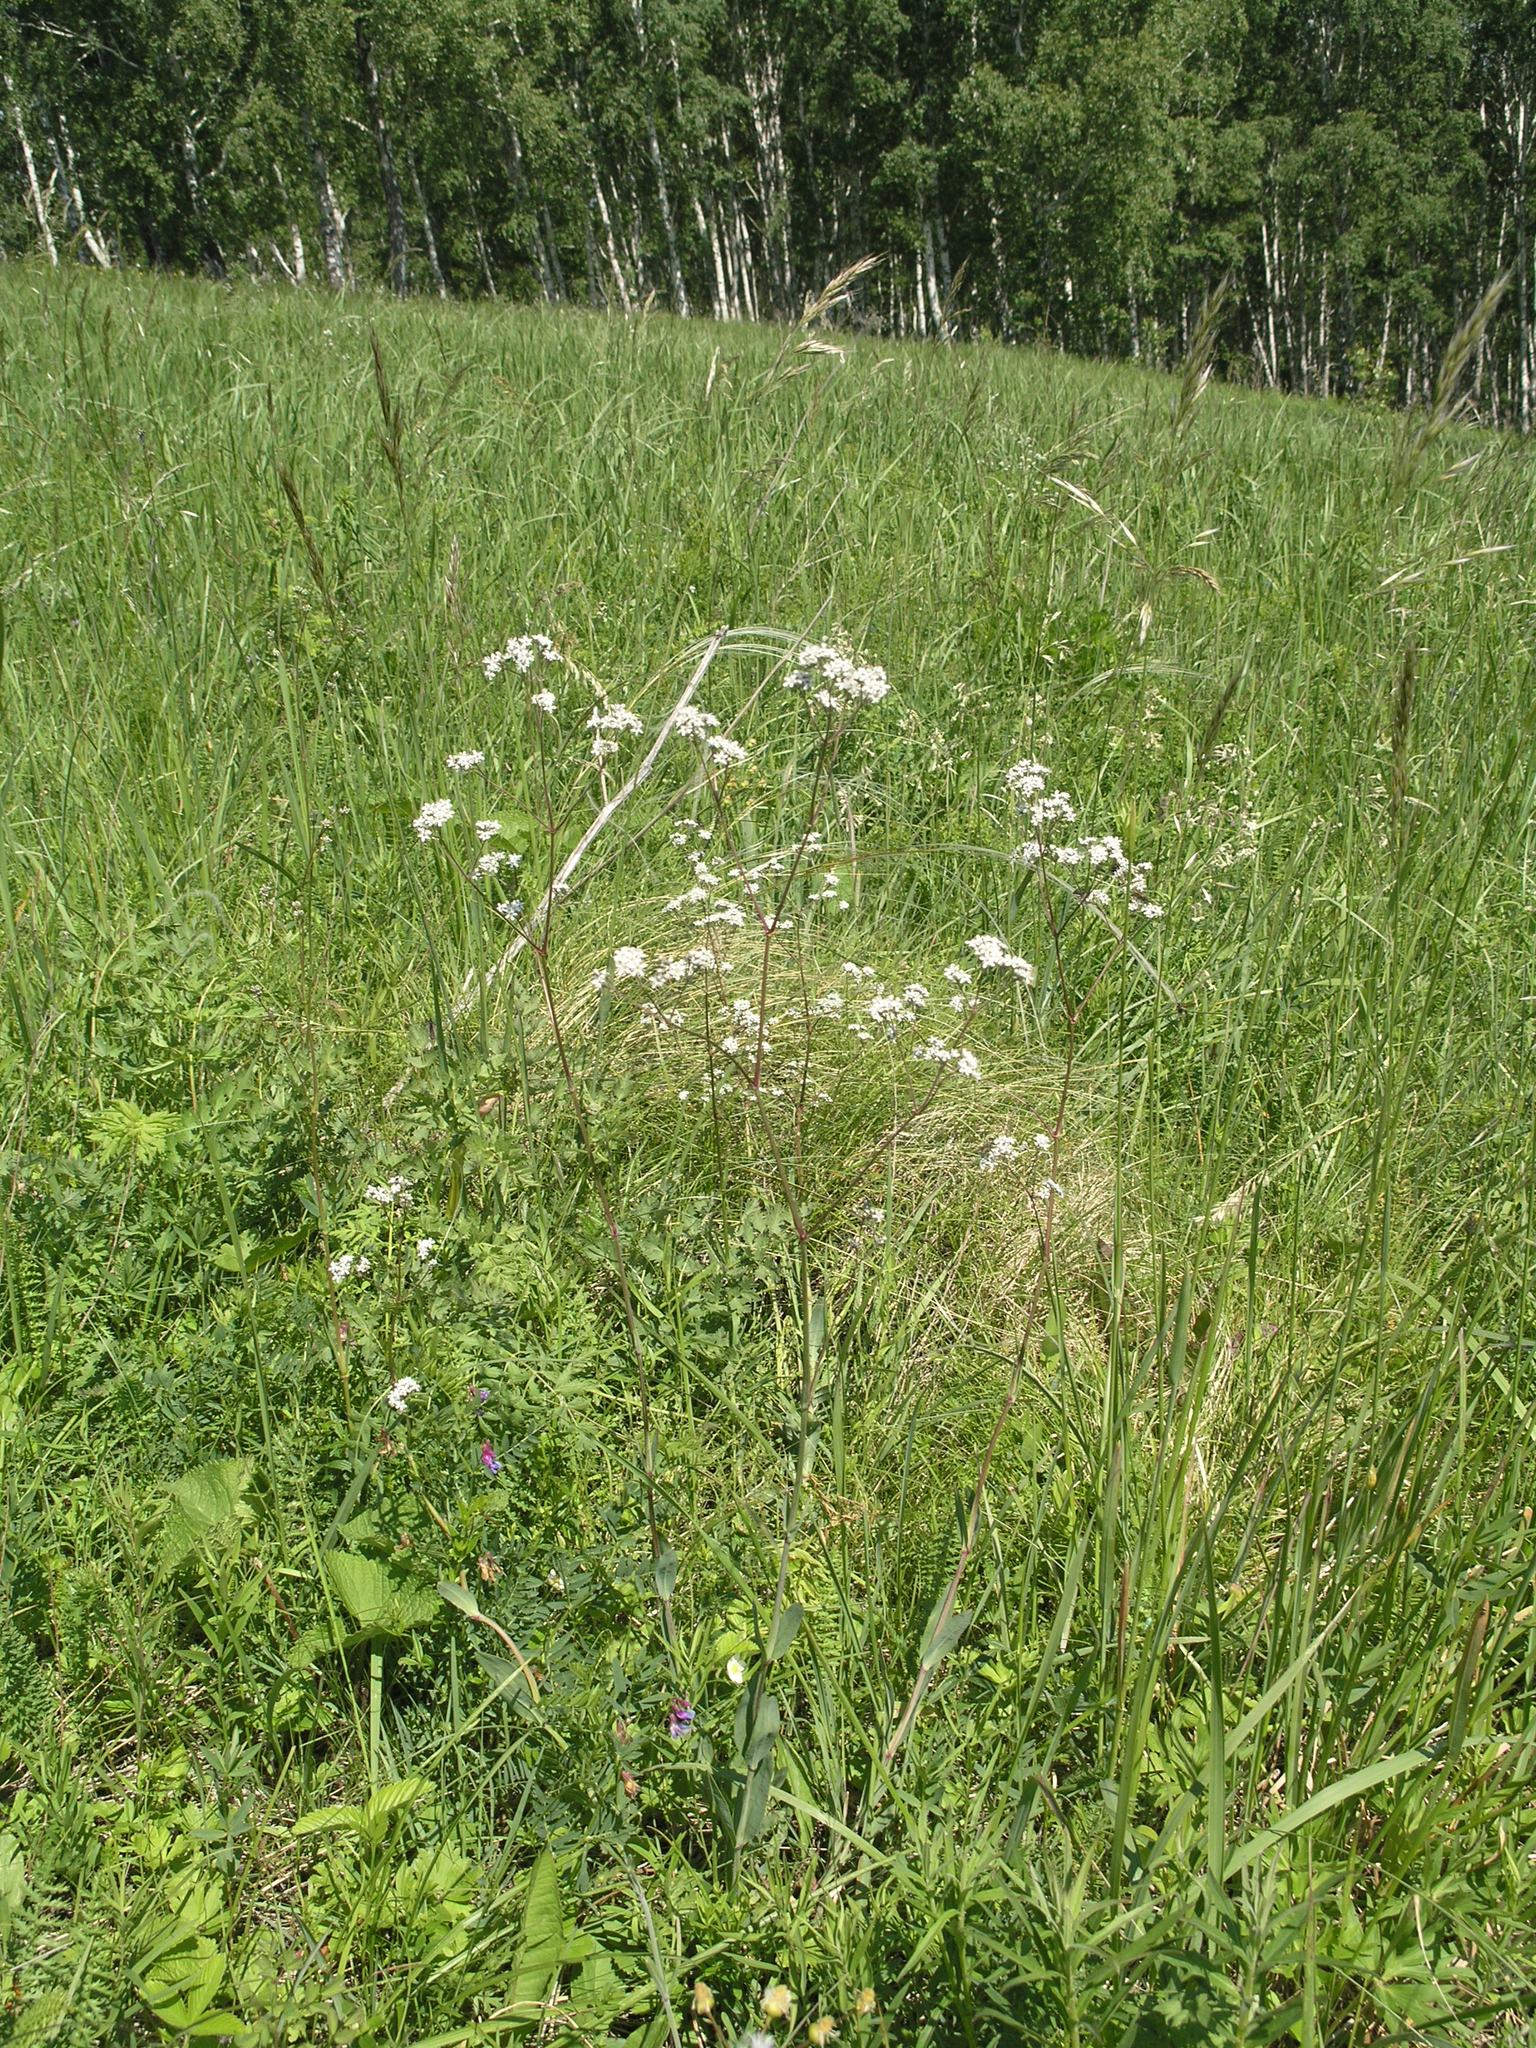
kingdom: Plantae
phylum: Tracheophyta
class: Magnoliopsida
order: Caryophyllales
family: Caryophyllaceae
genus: Gypsophila
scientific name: Gypsophila altissima
